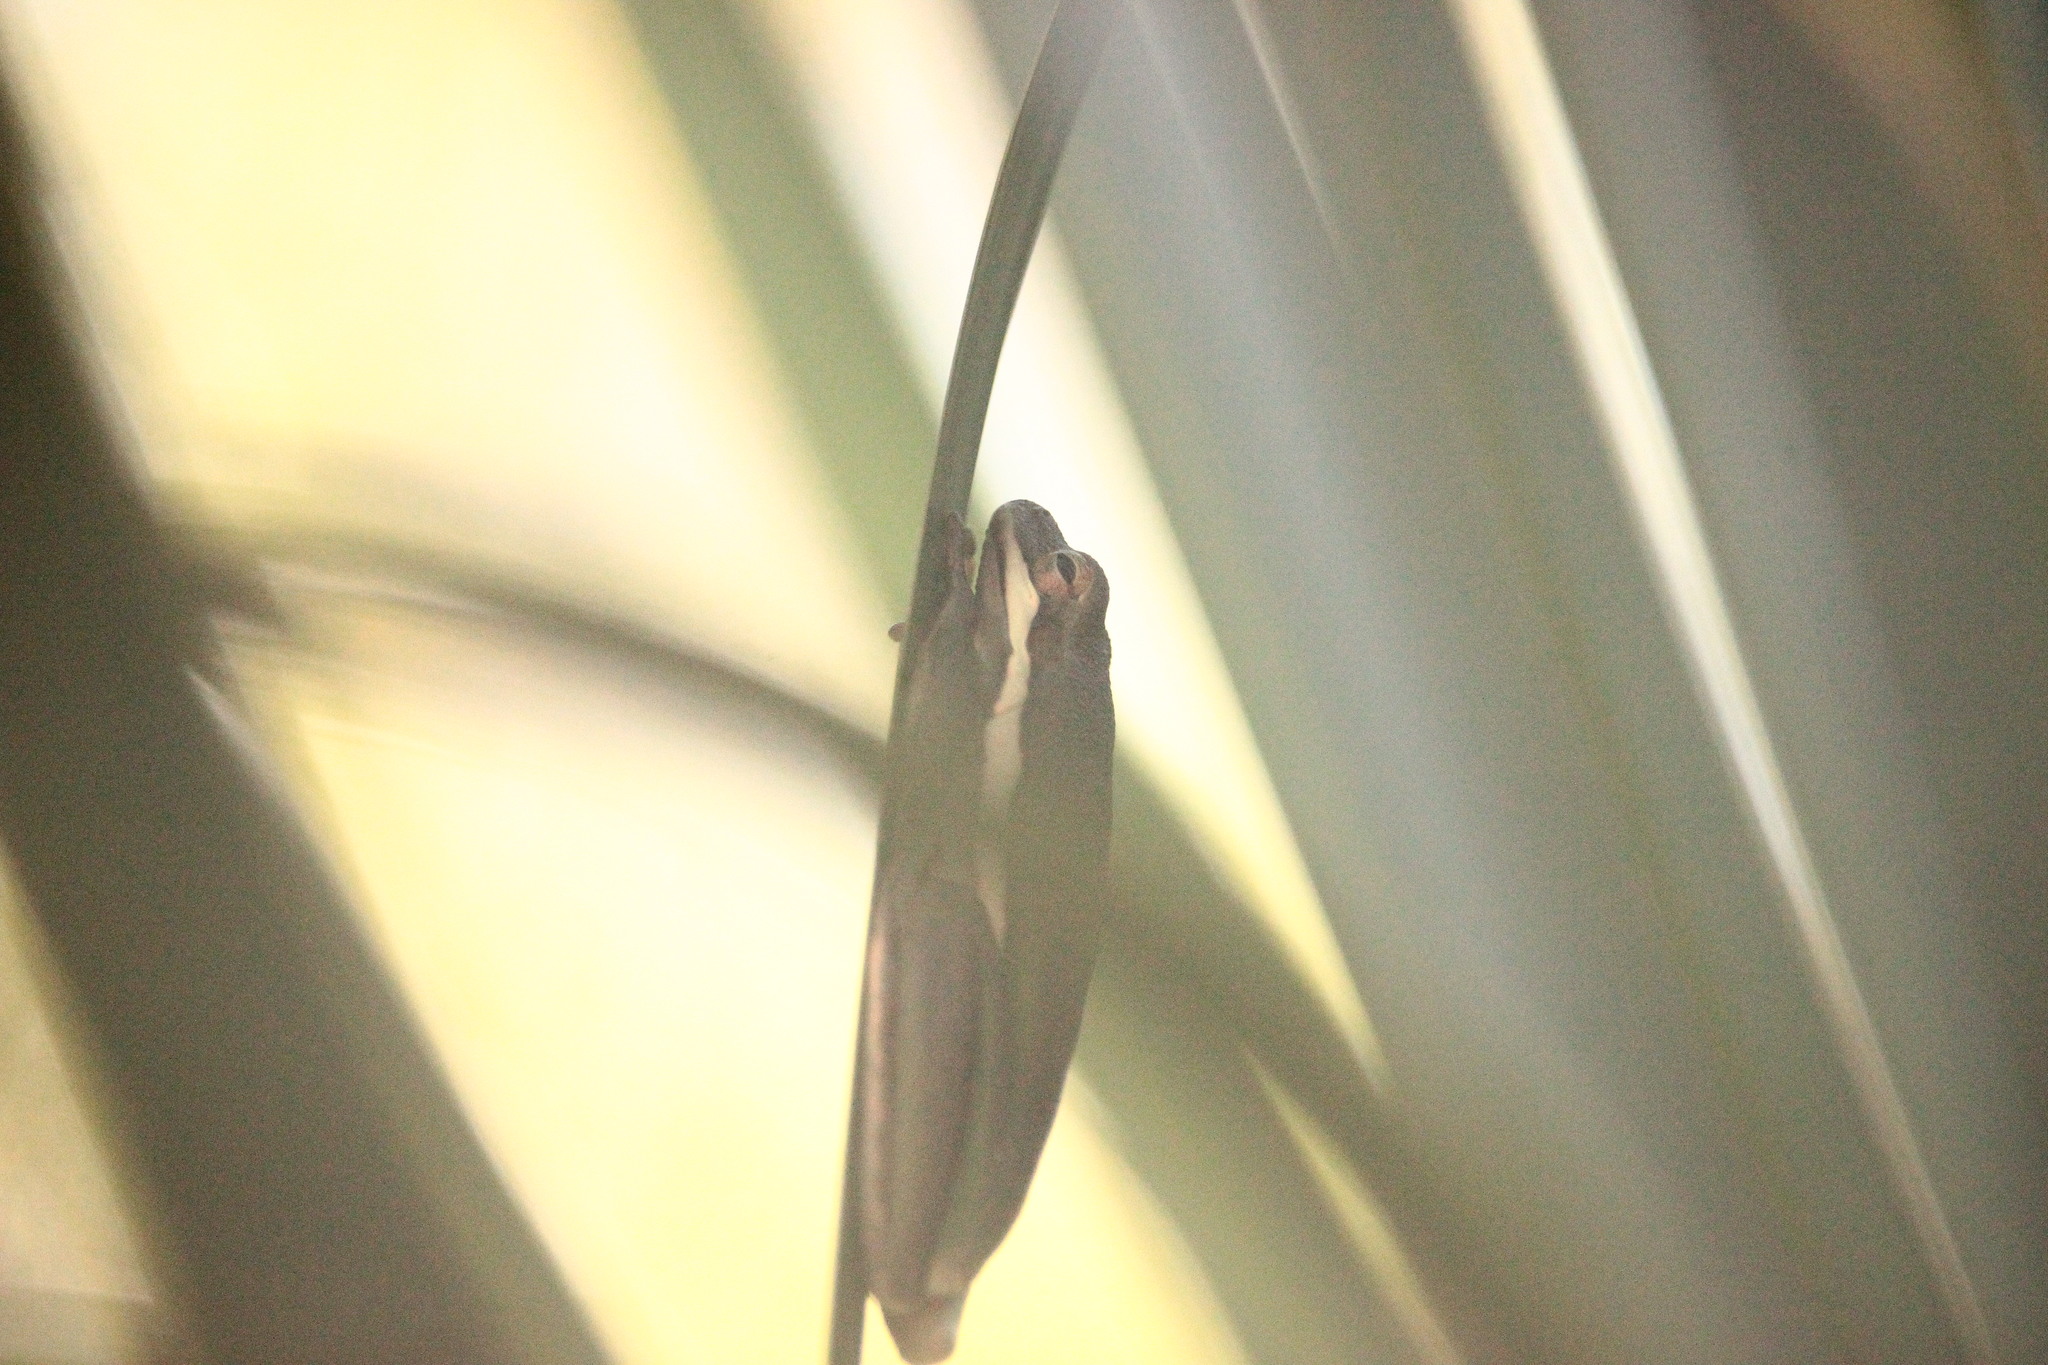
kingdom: Animalia
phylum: Chordata
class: Amphibia
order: Anura
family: Hylidae
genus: Dryophytes
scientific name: Dryophytes cinereus
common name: Green treefrog
